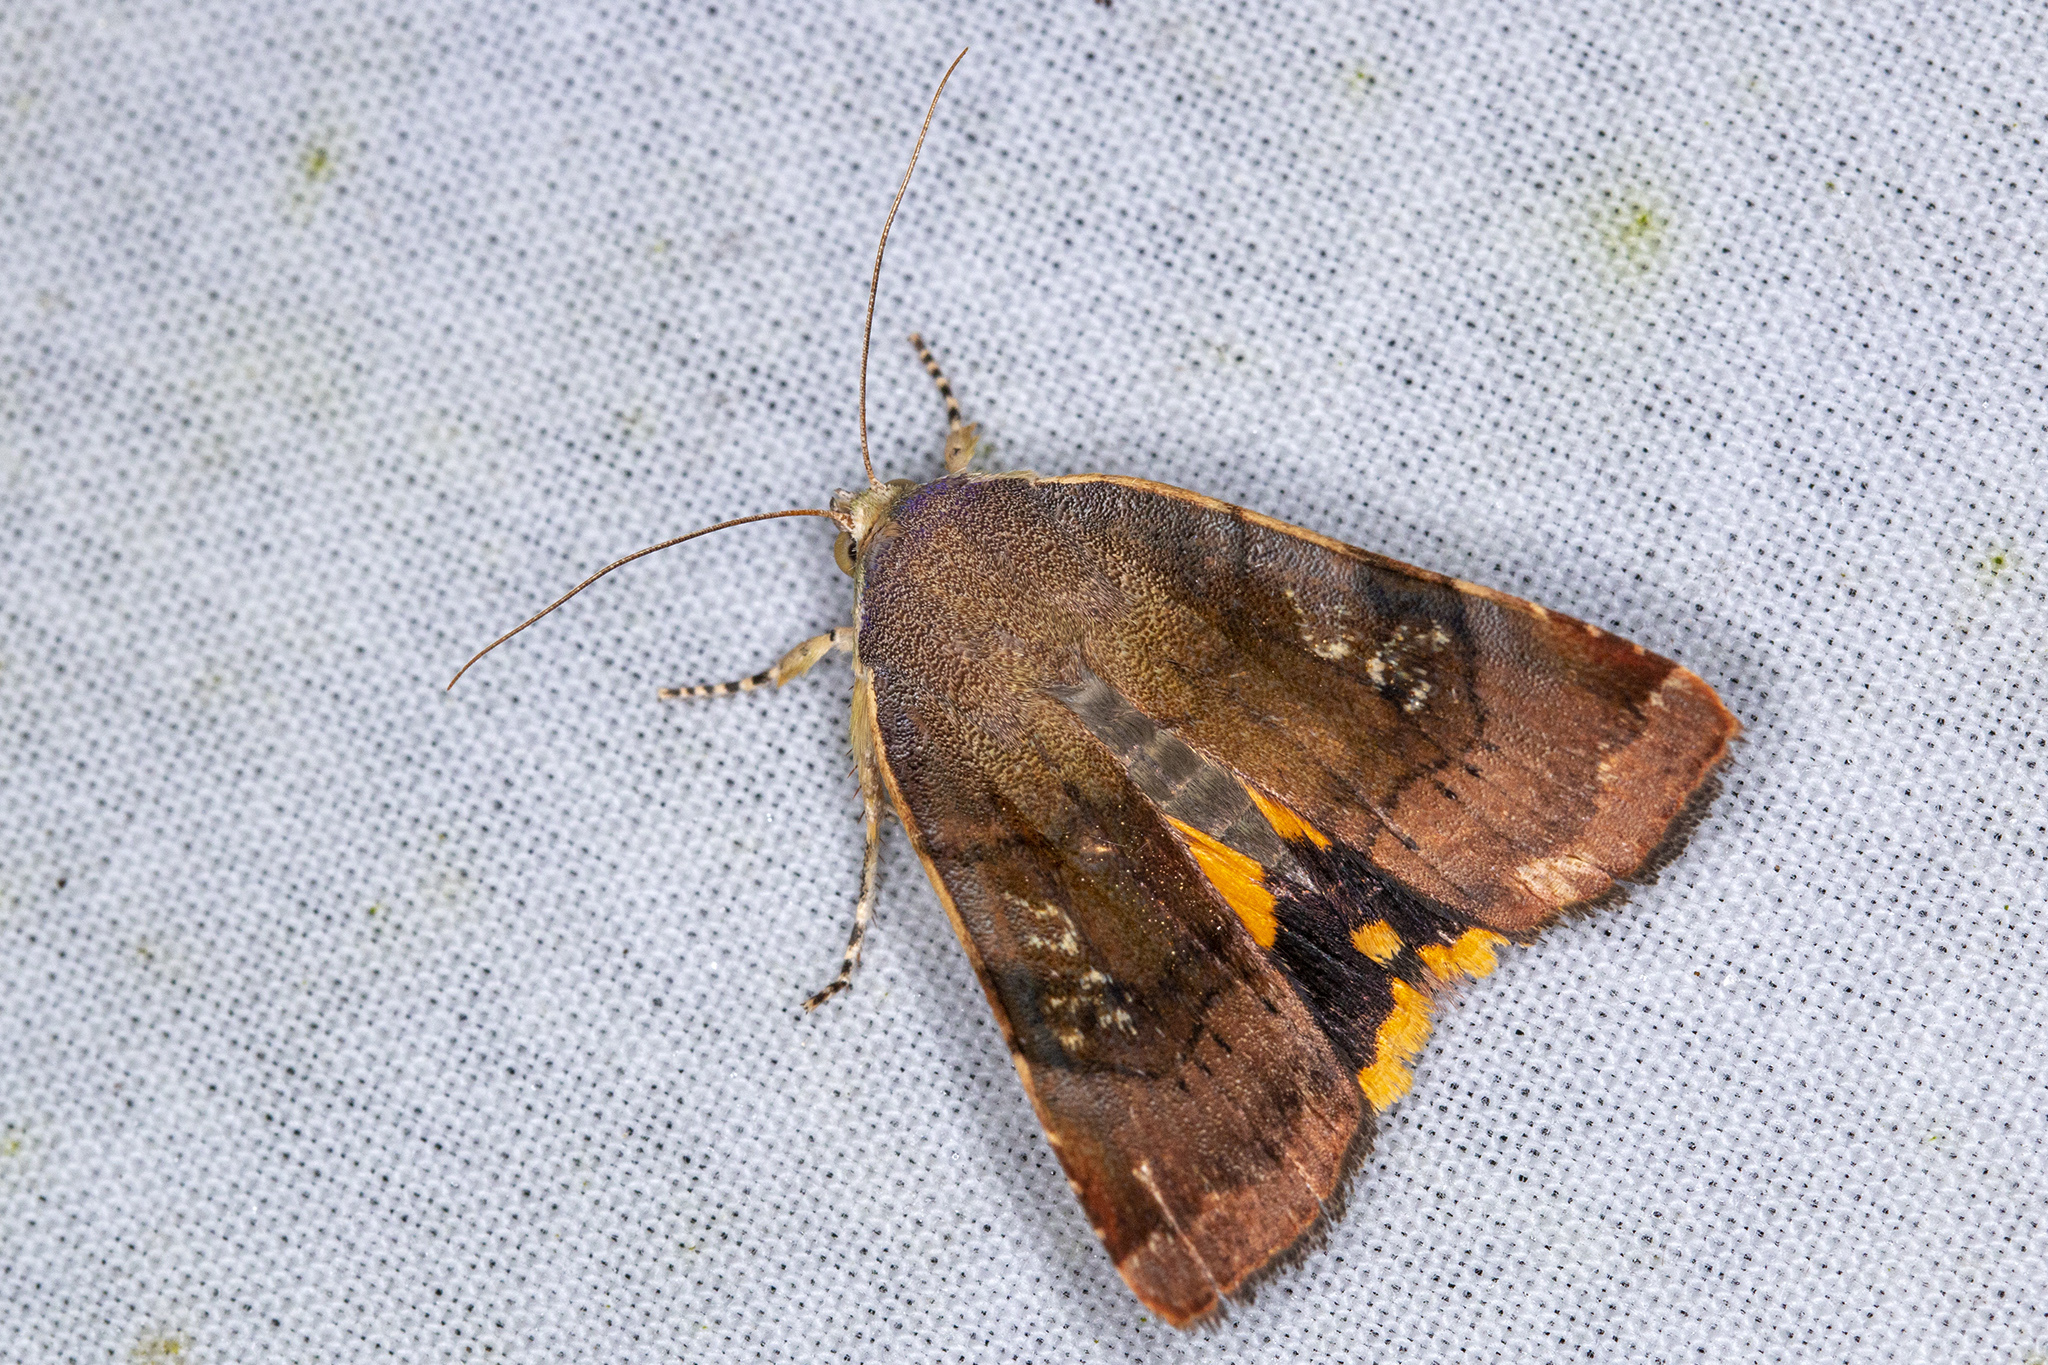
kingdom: Animalia
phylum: Arthropoda
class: Insecta
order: Lepidoptera
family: Noctuidae
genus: Noctua
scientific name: Noctua janthe
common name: Lesser broad-bordered yellow underwing
